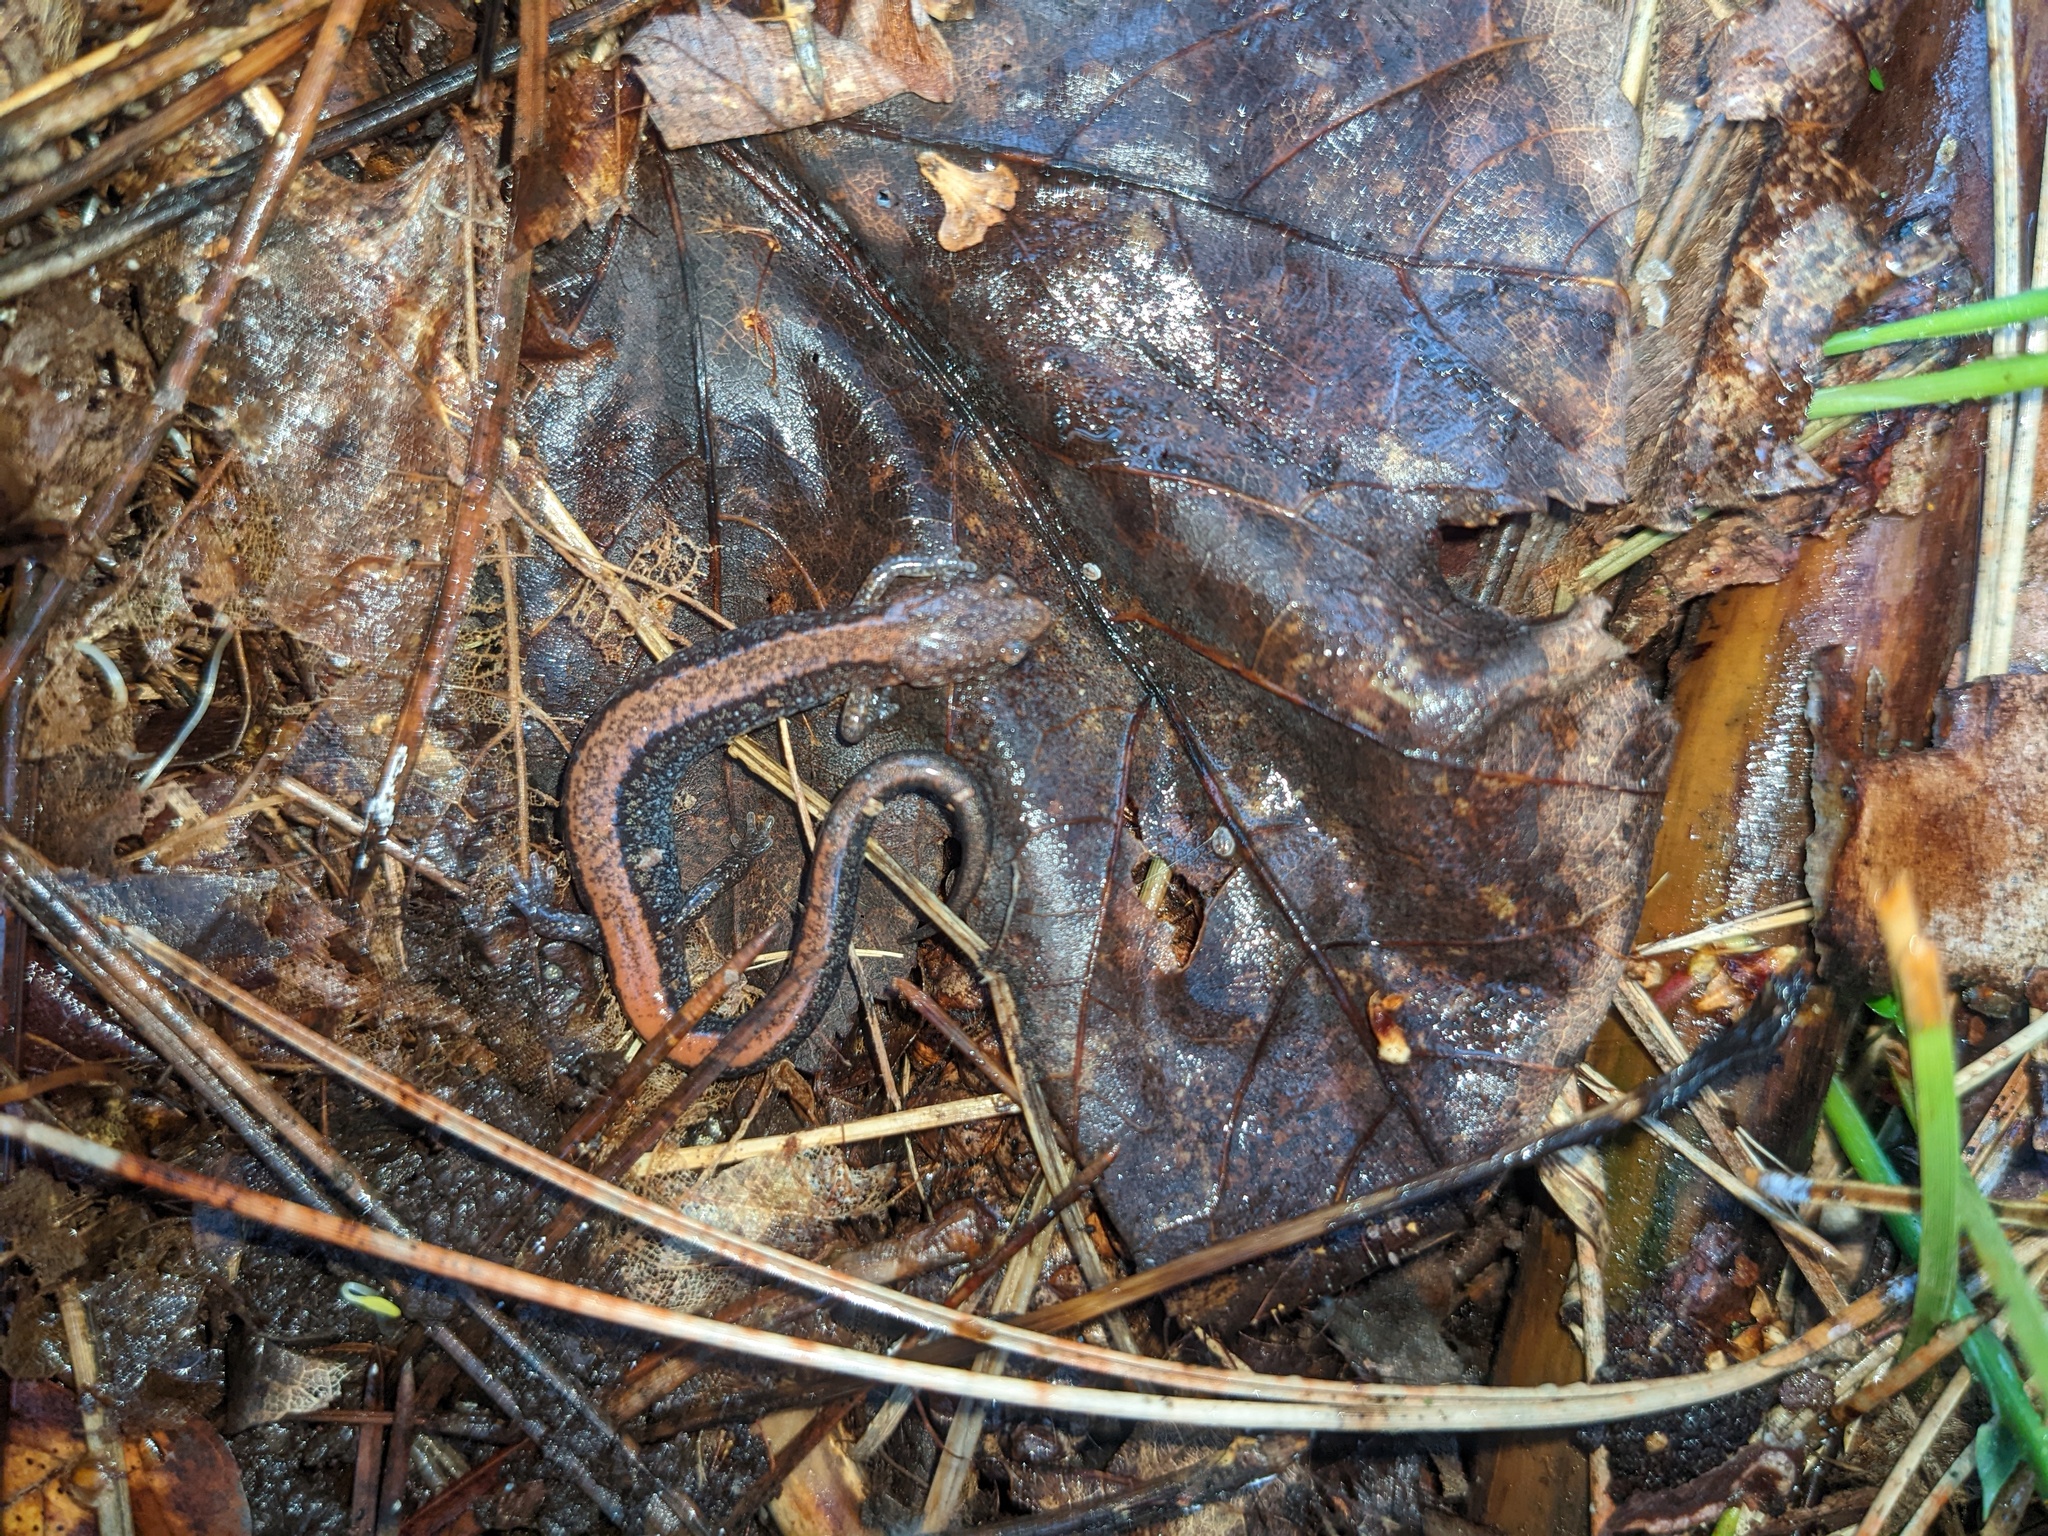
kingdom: Animalia
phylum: Chordata
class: Amphibia
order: Caudata
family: Plethodontidae
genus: Plethodon
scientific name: Plethodon cinereus
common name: Redback salamander
